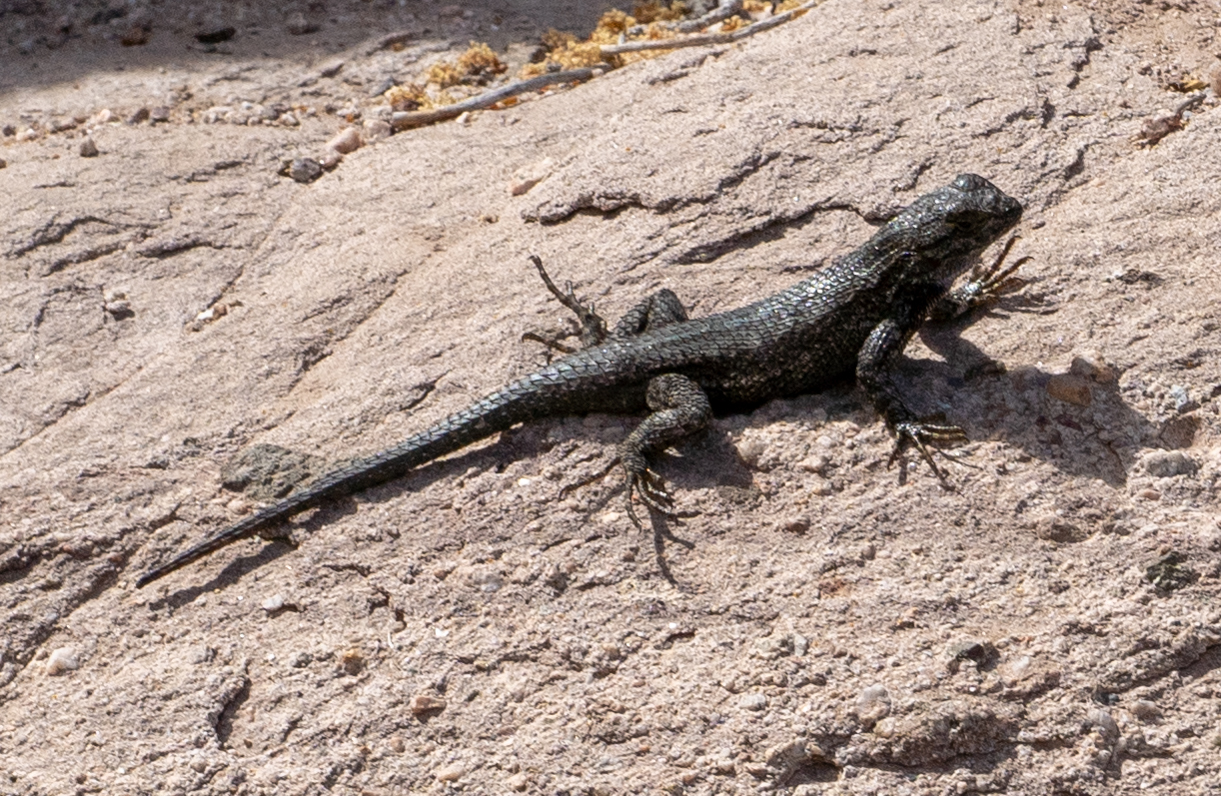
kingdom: Animalia
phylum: Chordata
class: Squamata
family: Phrynosomatidae
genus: Sceloporus
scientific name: Sceloporus occidentalis
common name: Western fence lizard
